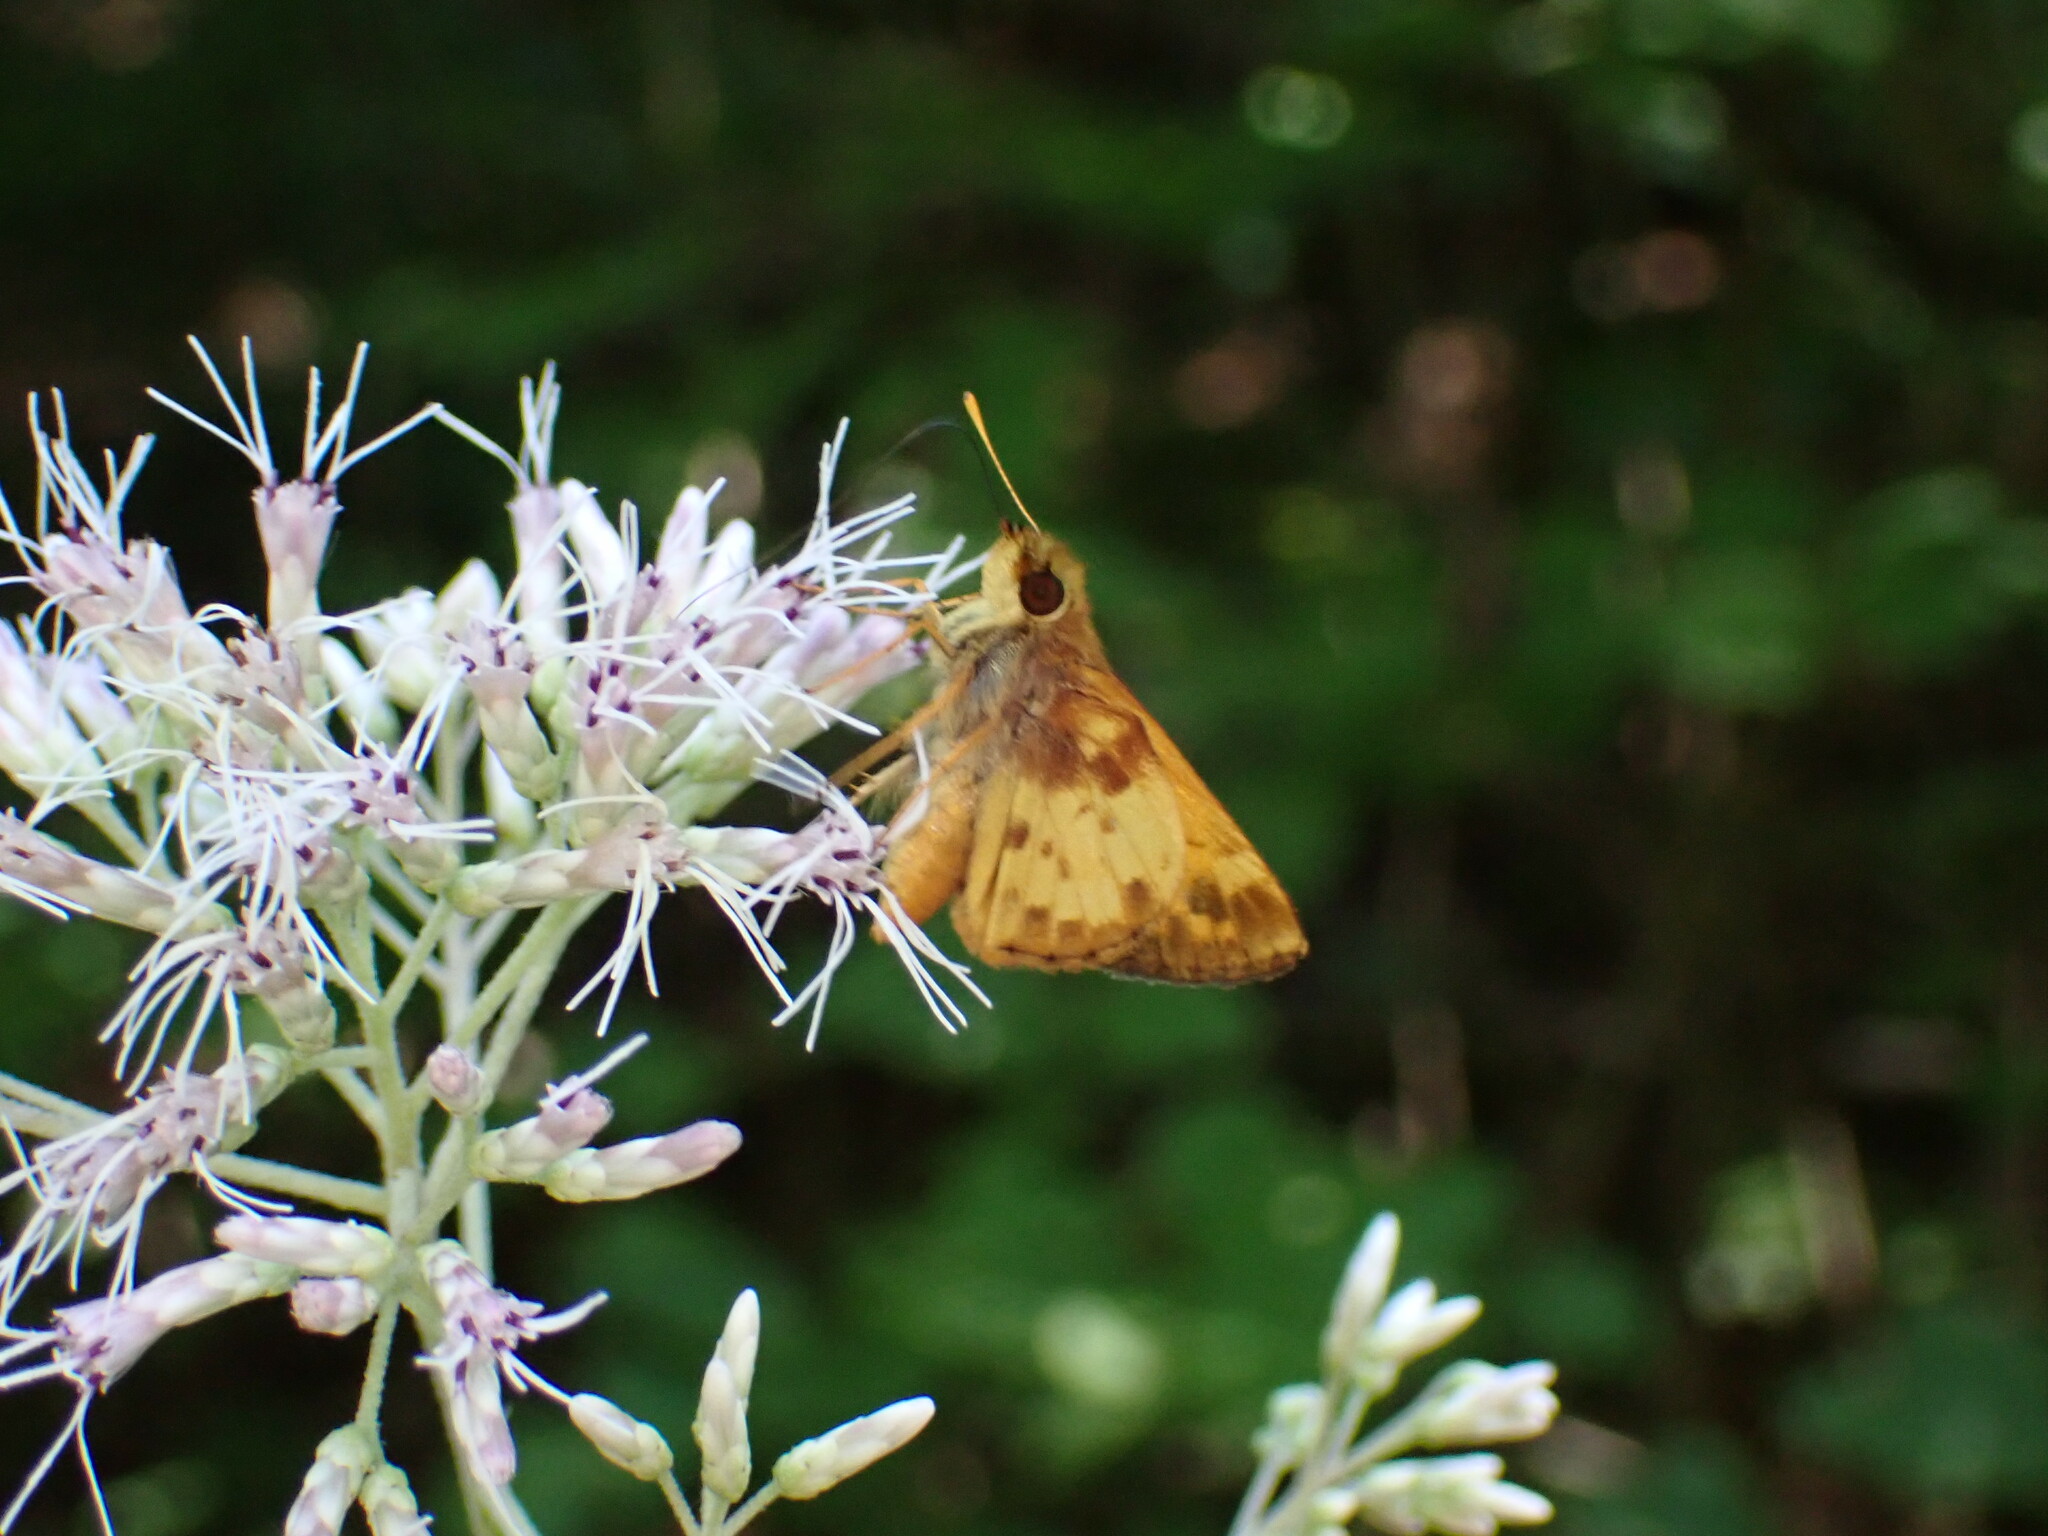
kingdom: Animalia
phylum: Arthropoda
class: Insecta
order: Lepidoptera
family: Hesperiidae
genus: Lon
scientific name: Lon zabulon
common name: Zabulon skipper
